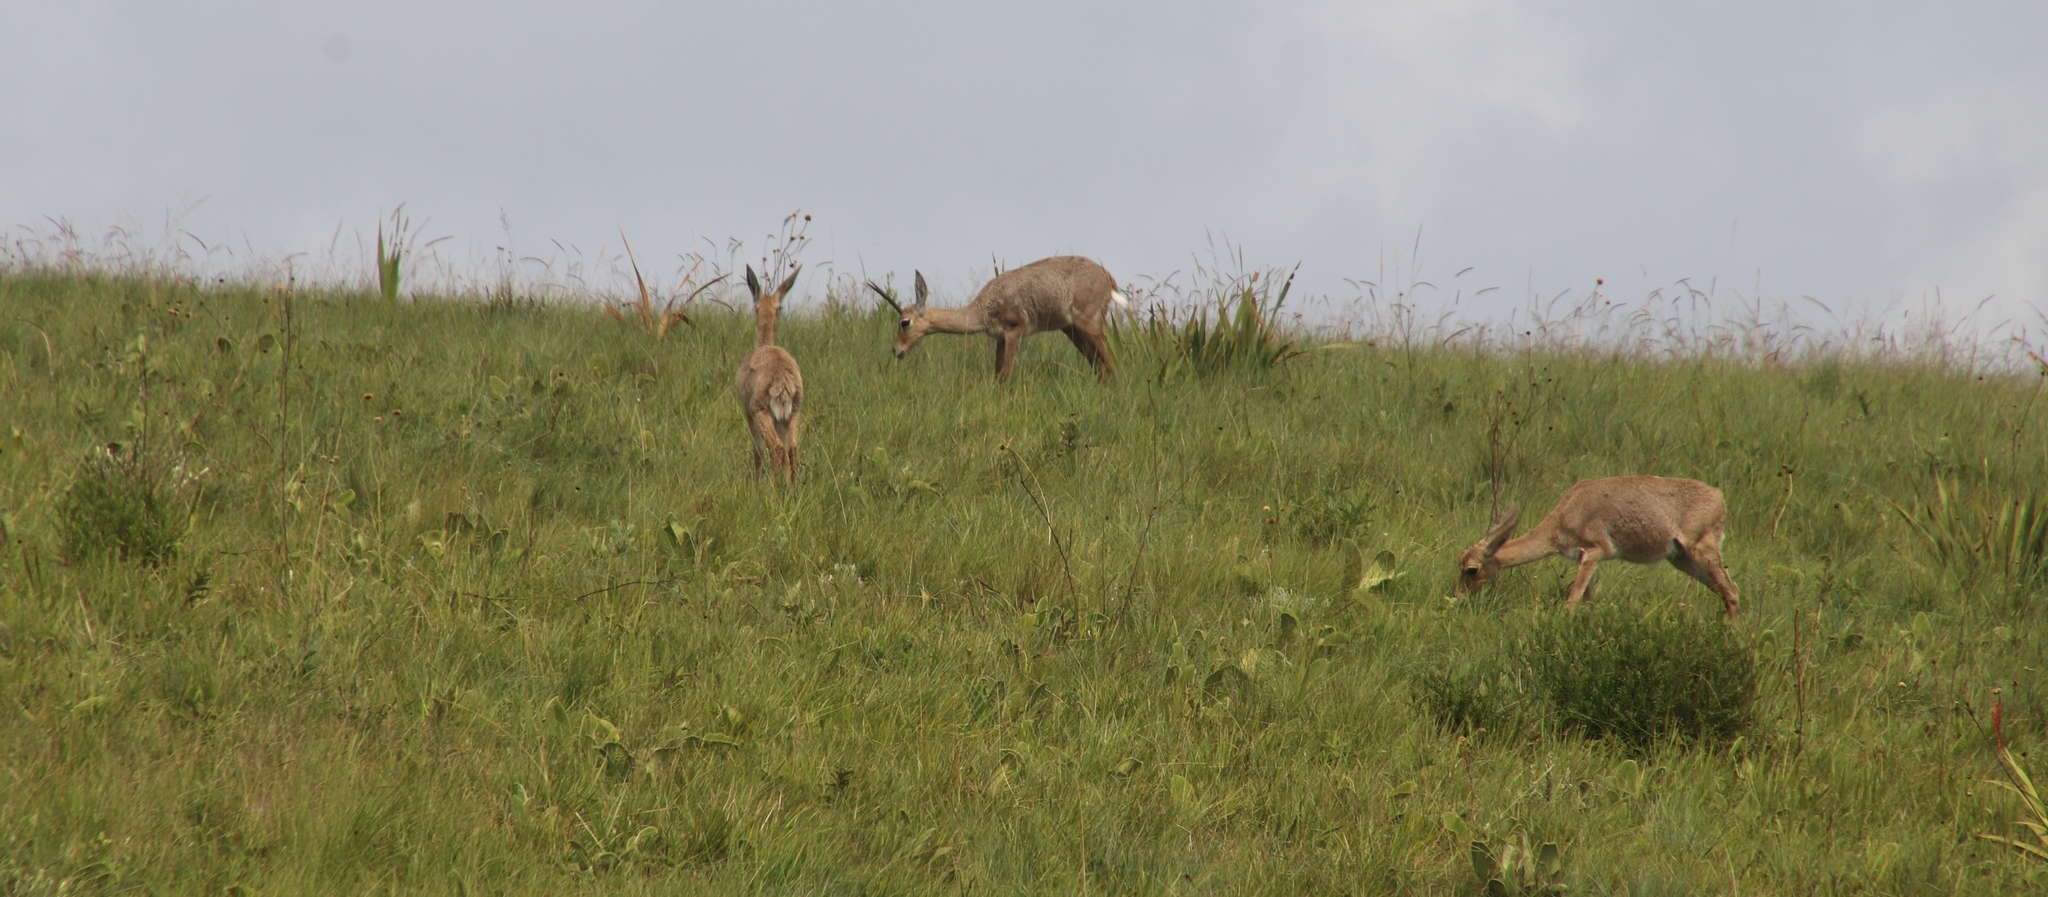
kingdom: Animalia
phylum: Chordata
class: Mammalia
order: Artiodactyla
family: Bovidae
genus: Pelea
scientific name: Pelea capreolus
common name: Common rhebok
